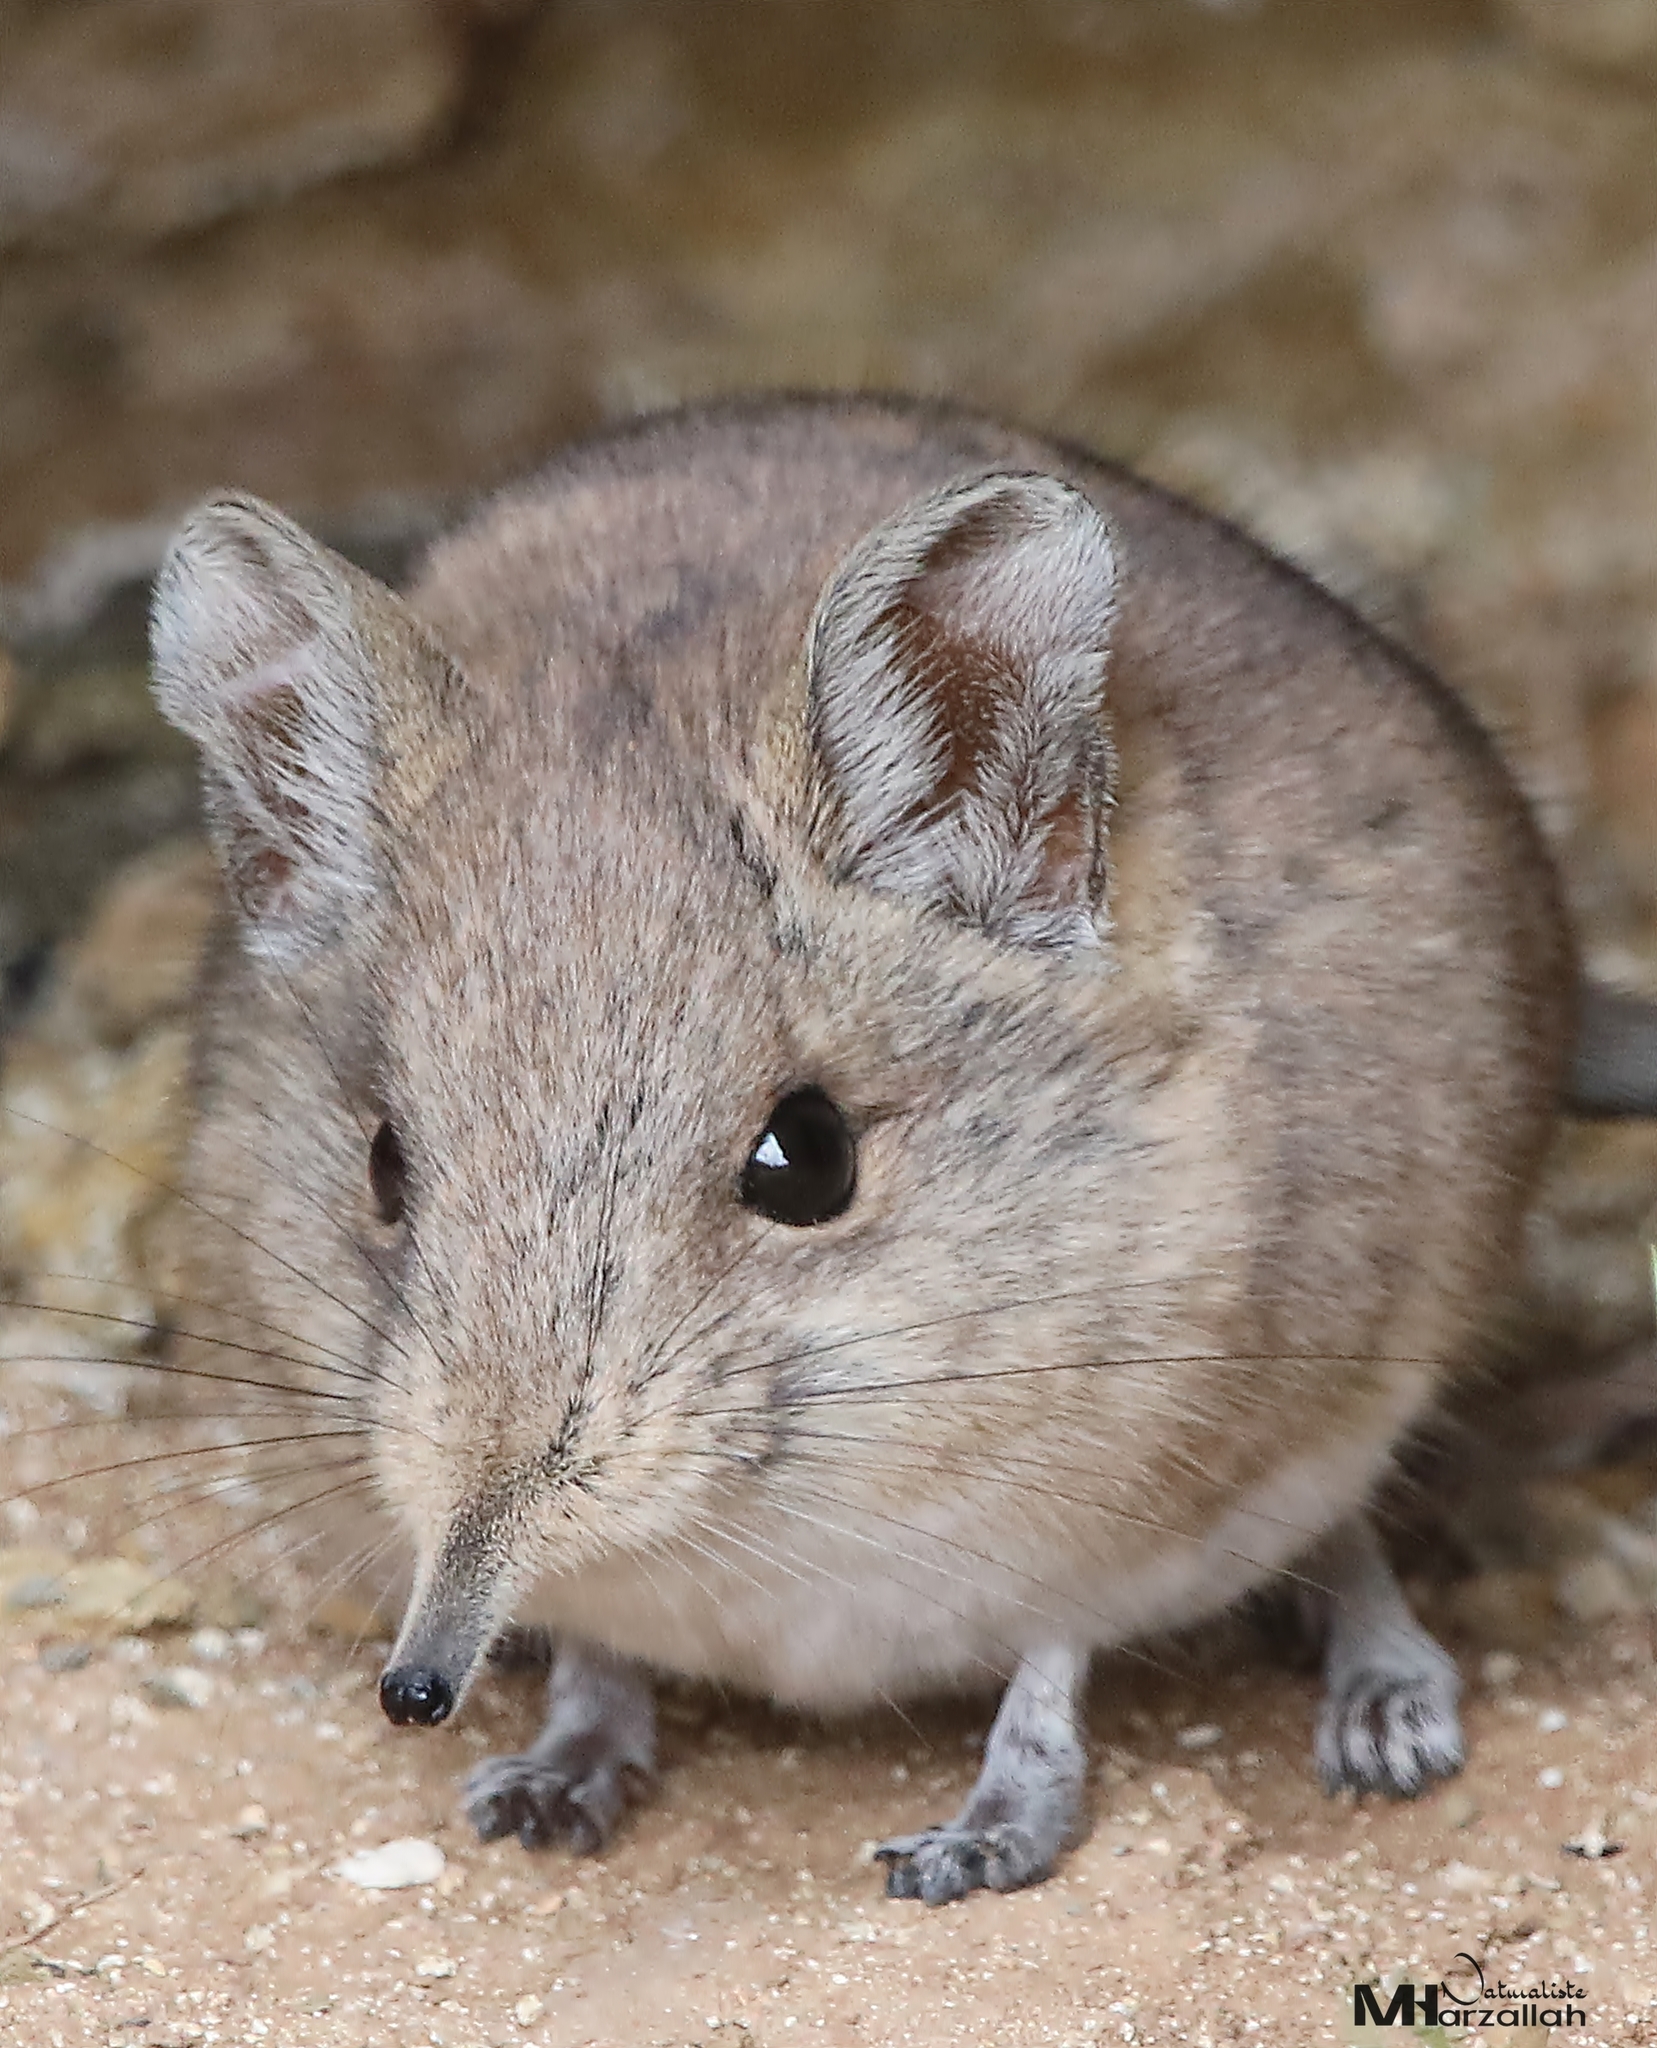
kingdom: Animalia
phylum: Chordata
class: Mammalia
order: Macroscelidea
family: Macroscelididae
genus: Elephantulus
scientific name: Elephantulus rozeti
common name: North african elephant shrew
